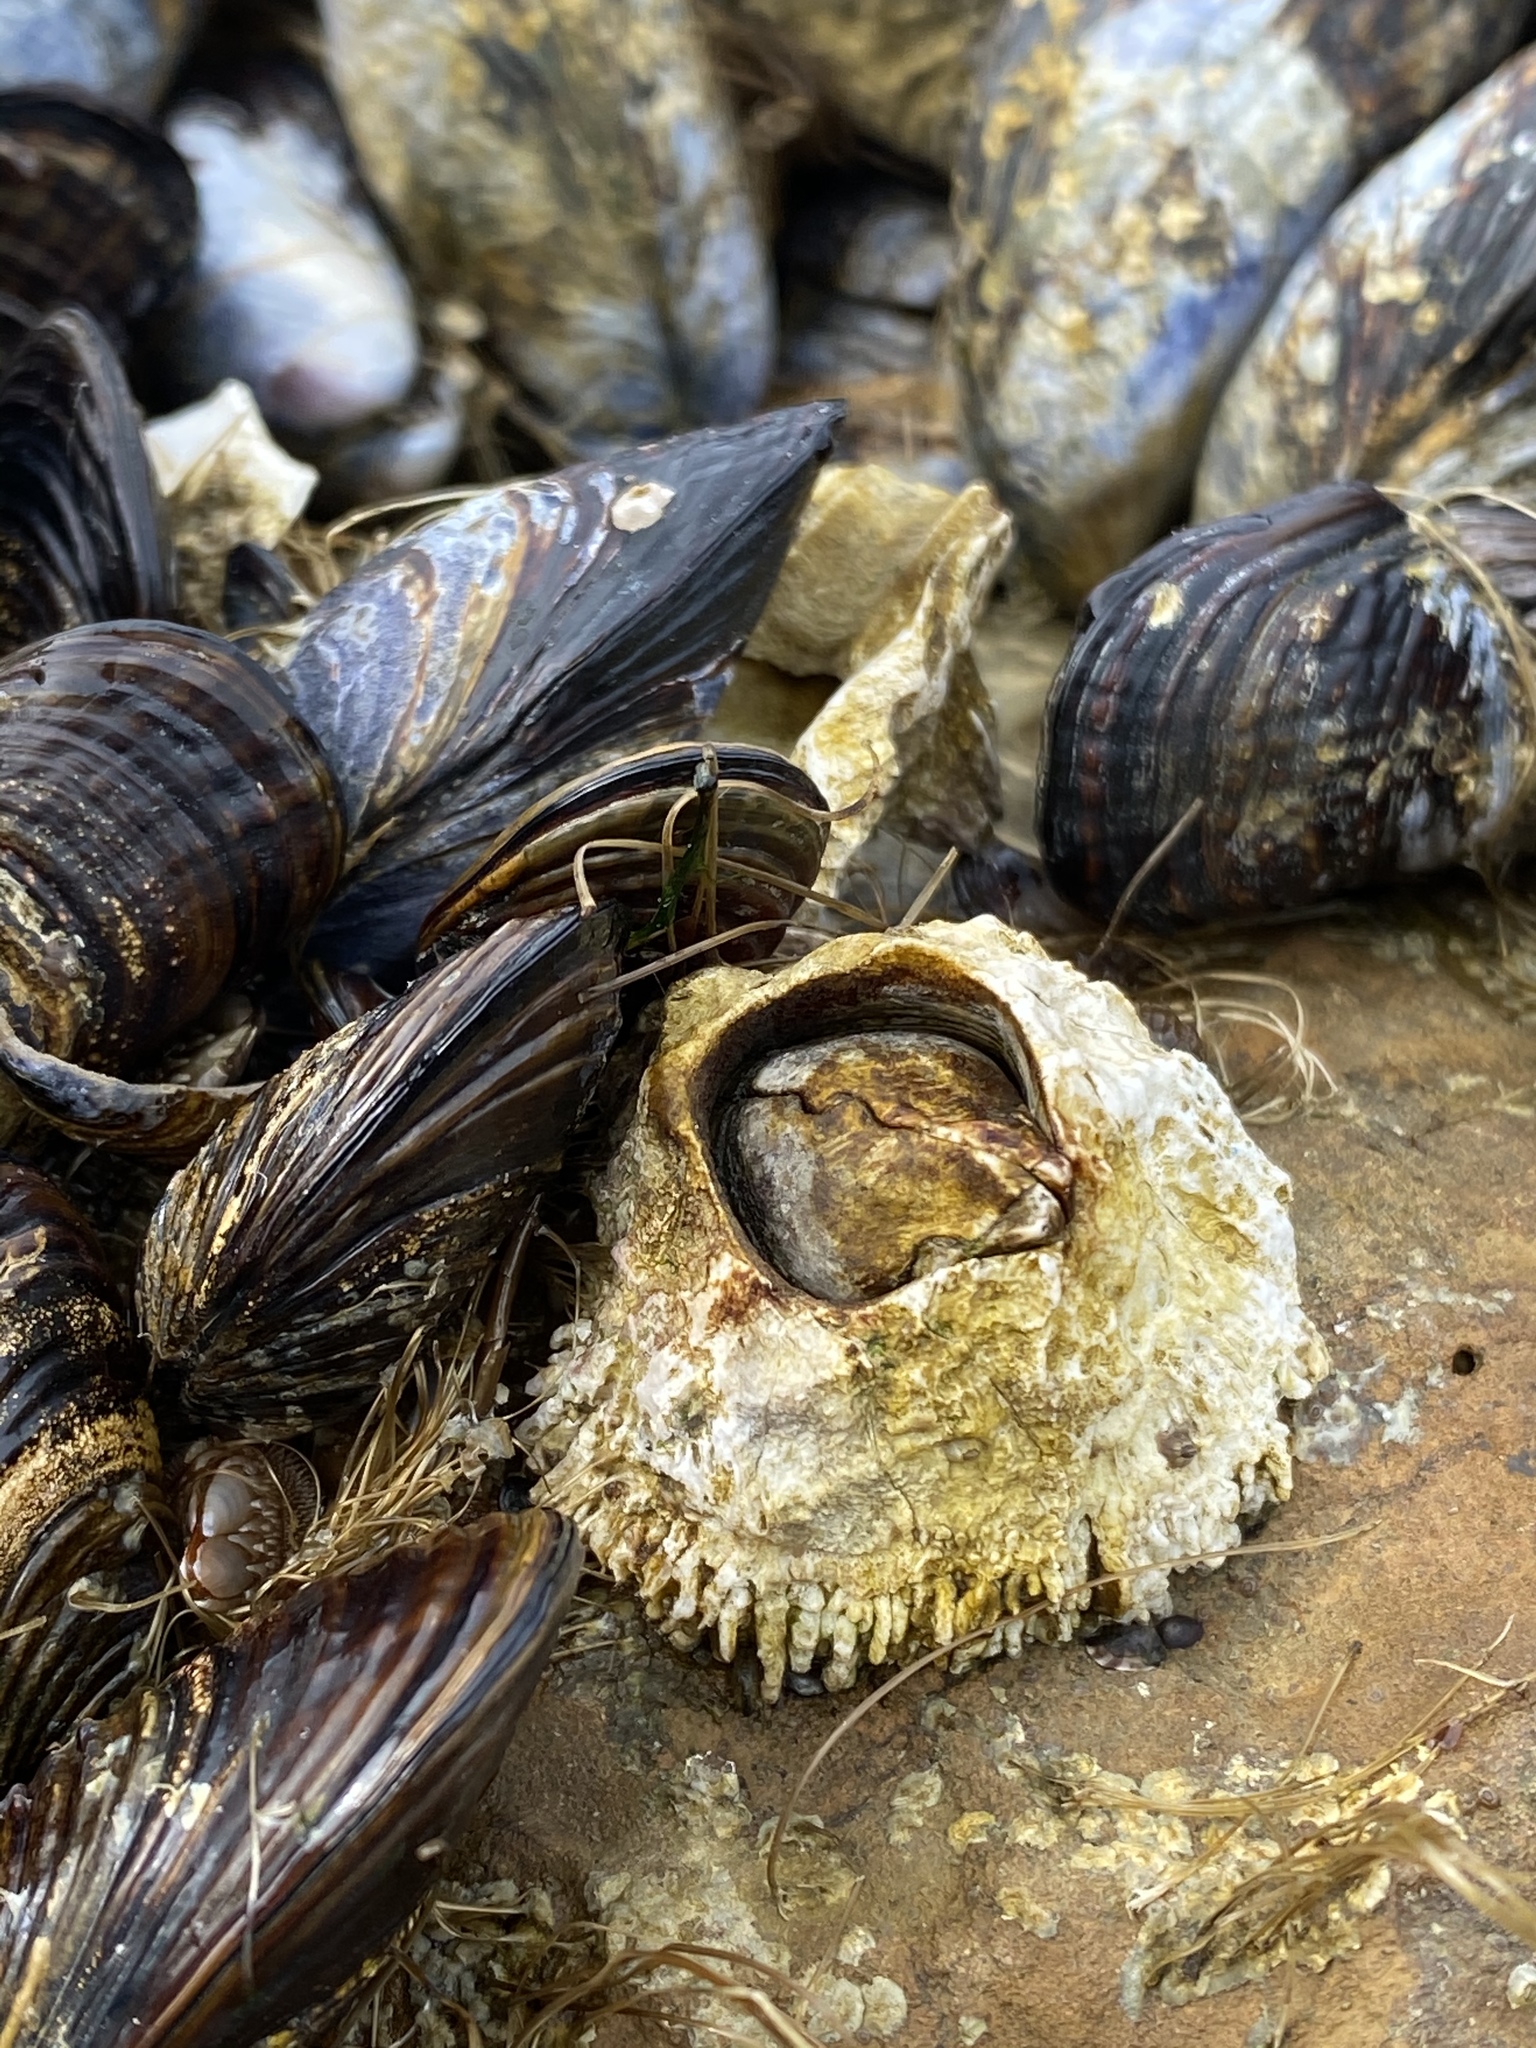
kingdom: Animalia
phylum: Arthropoda
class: Maxillopoda
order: Sessilia
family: Archaeobalanidae
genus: Semibalanus
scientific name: Semibalanus cariosus
